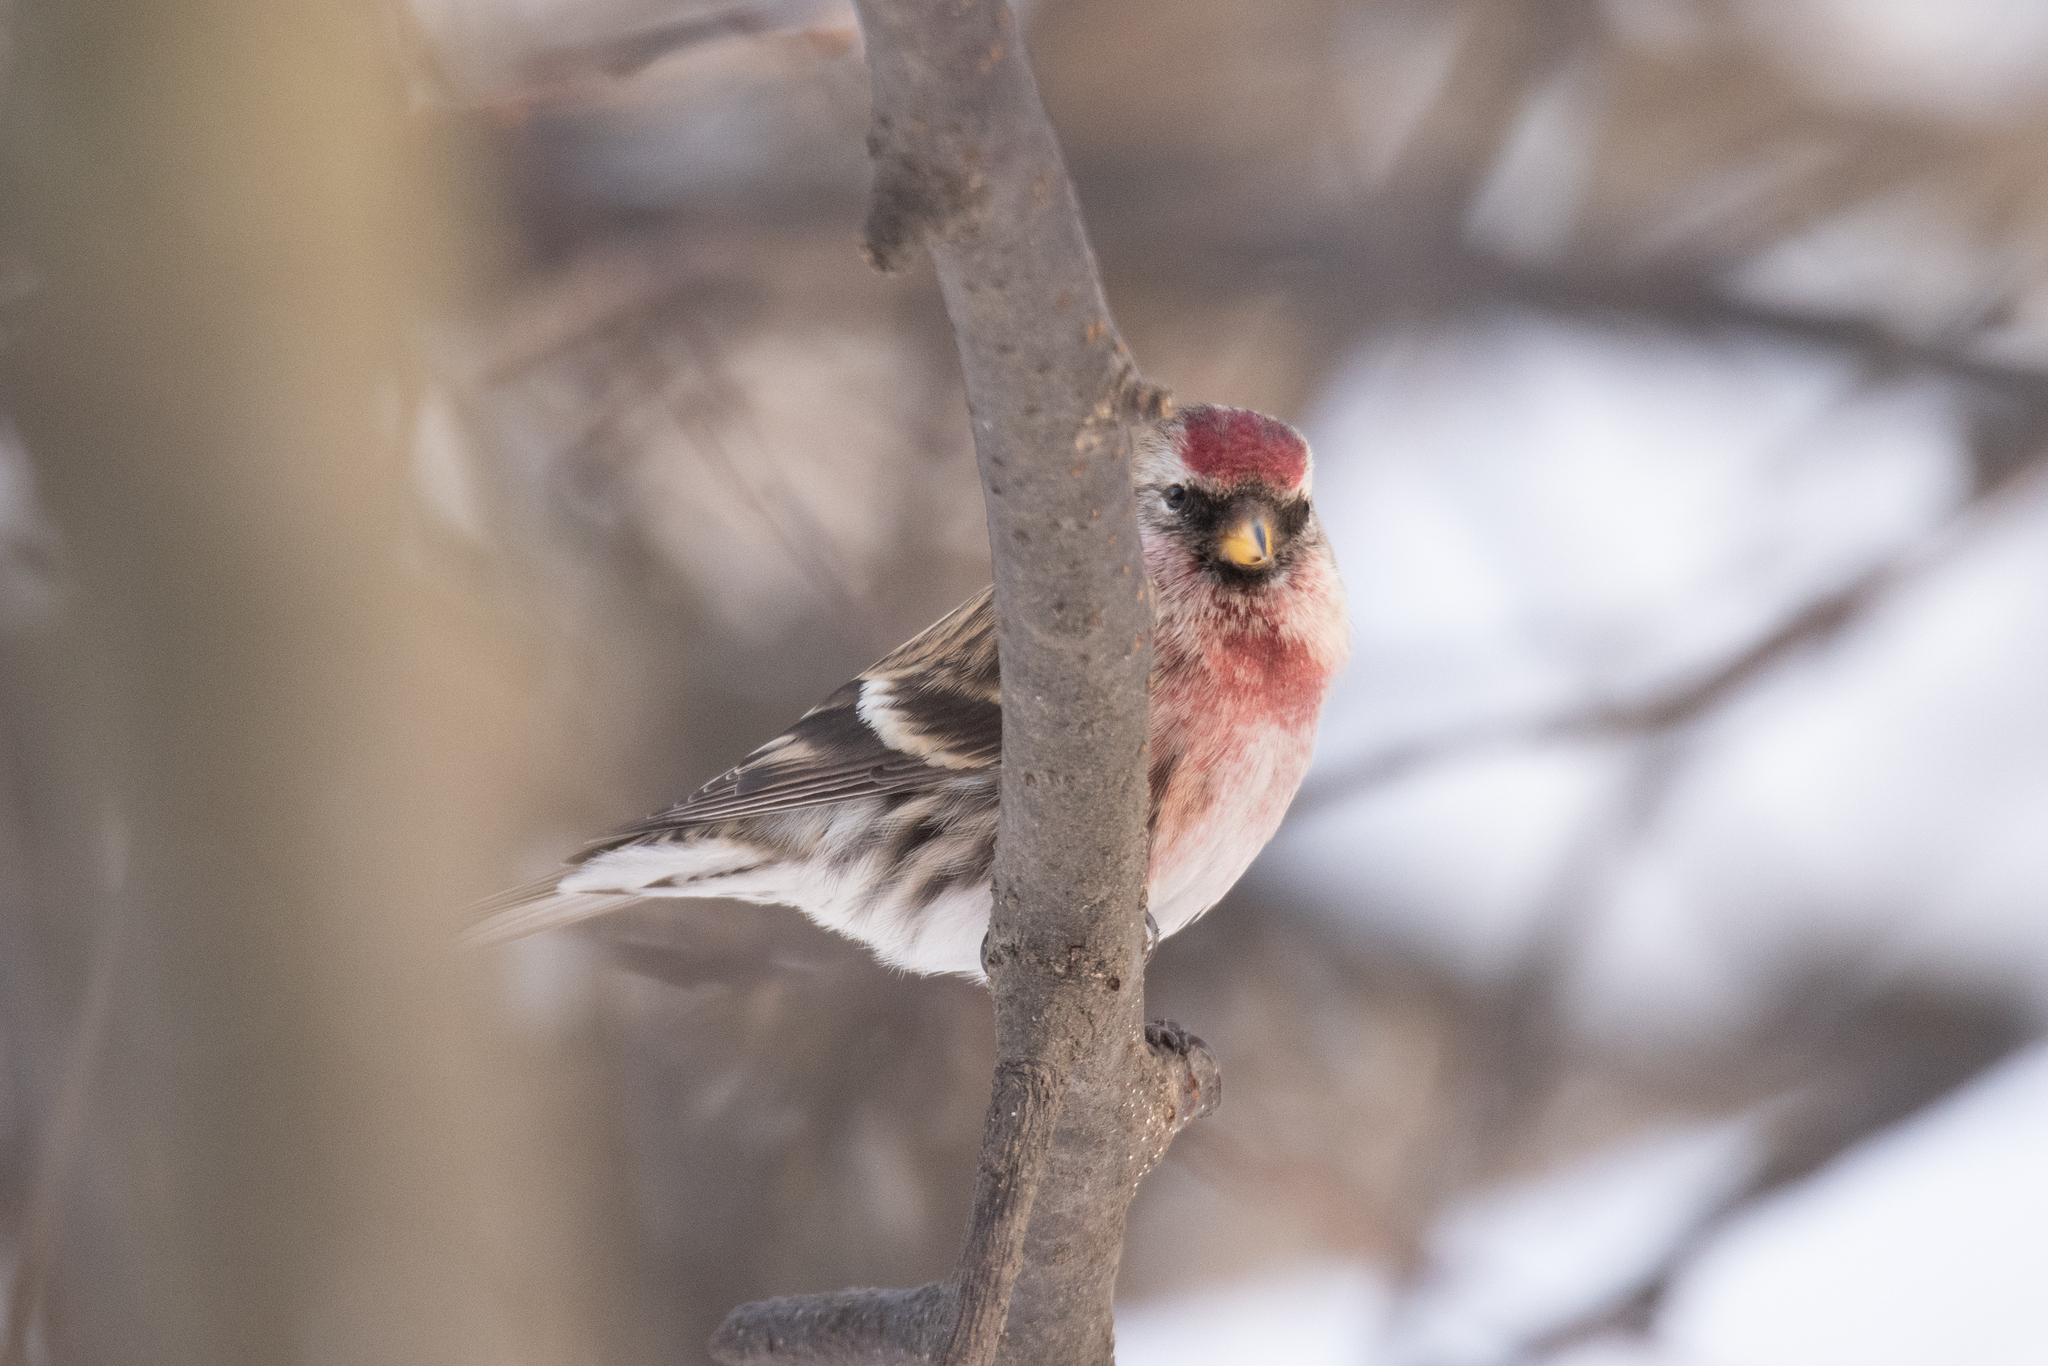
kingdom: Animalia
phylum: Chordata
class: Aves
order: Passeriformes
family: Fringillidae
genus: Acanthis
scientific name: Acanthis flammea
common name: Common redpoll
